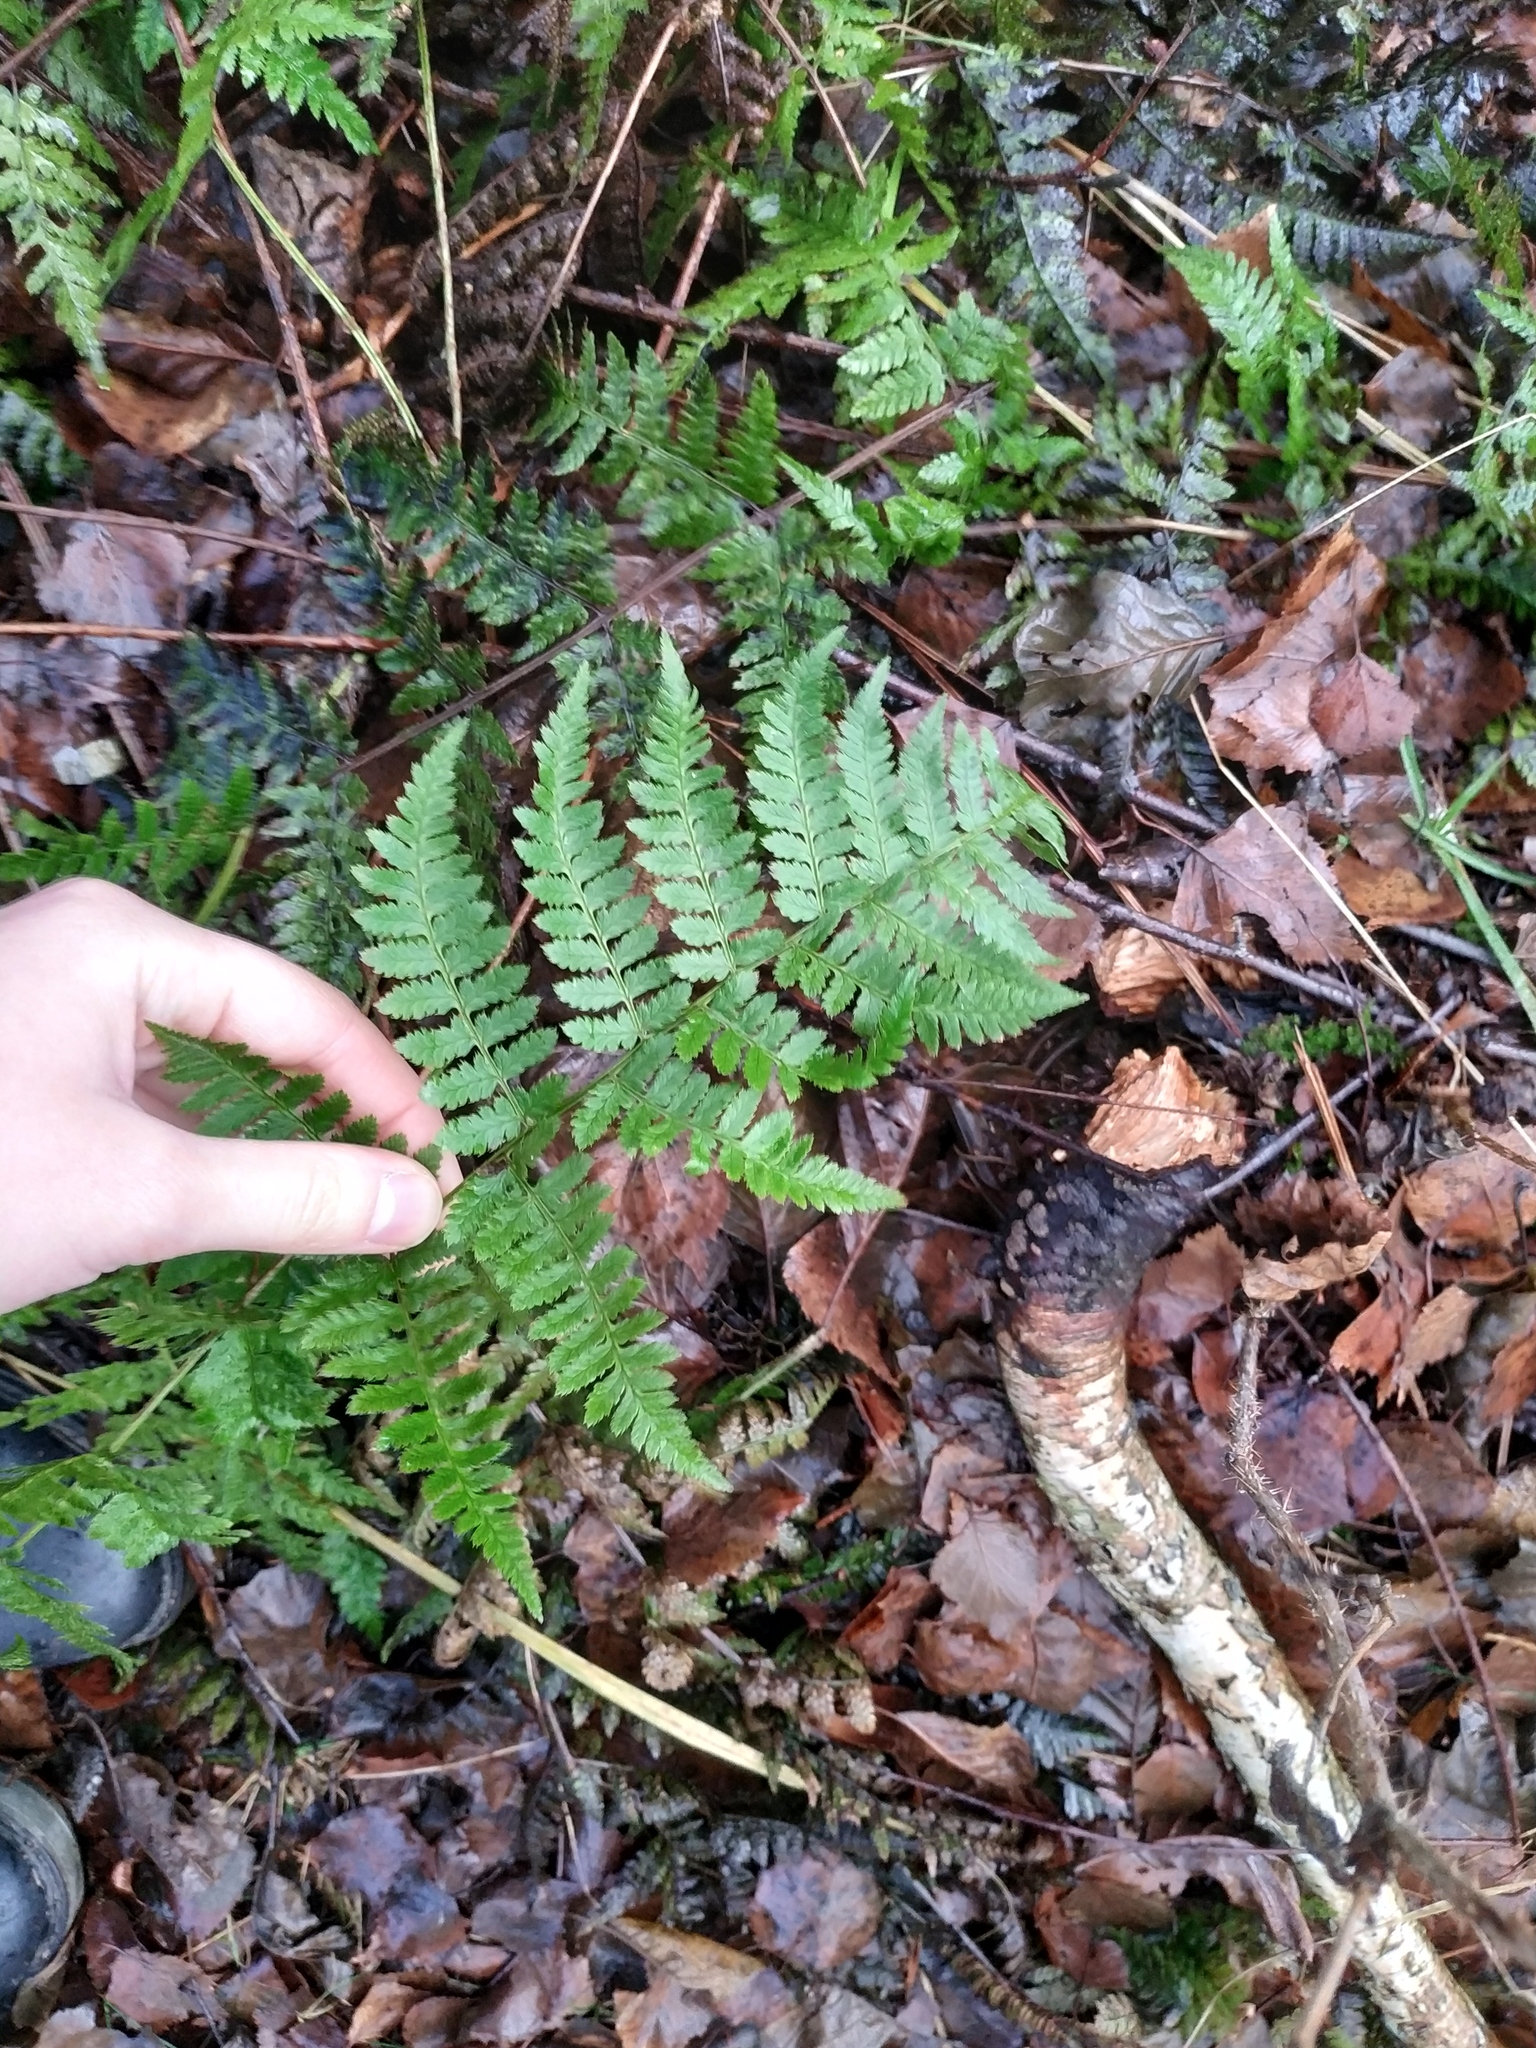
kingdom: Plantae
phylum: Tracheophyta
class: Polypodiopsida
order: Polypodiales
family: Athyriaceae
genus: Athyrium
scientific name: Athyrium filix-femina
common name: Lady fern
